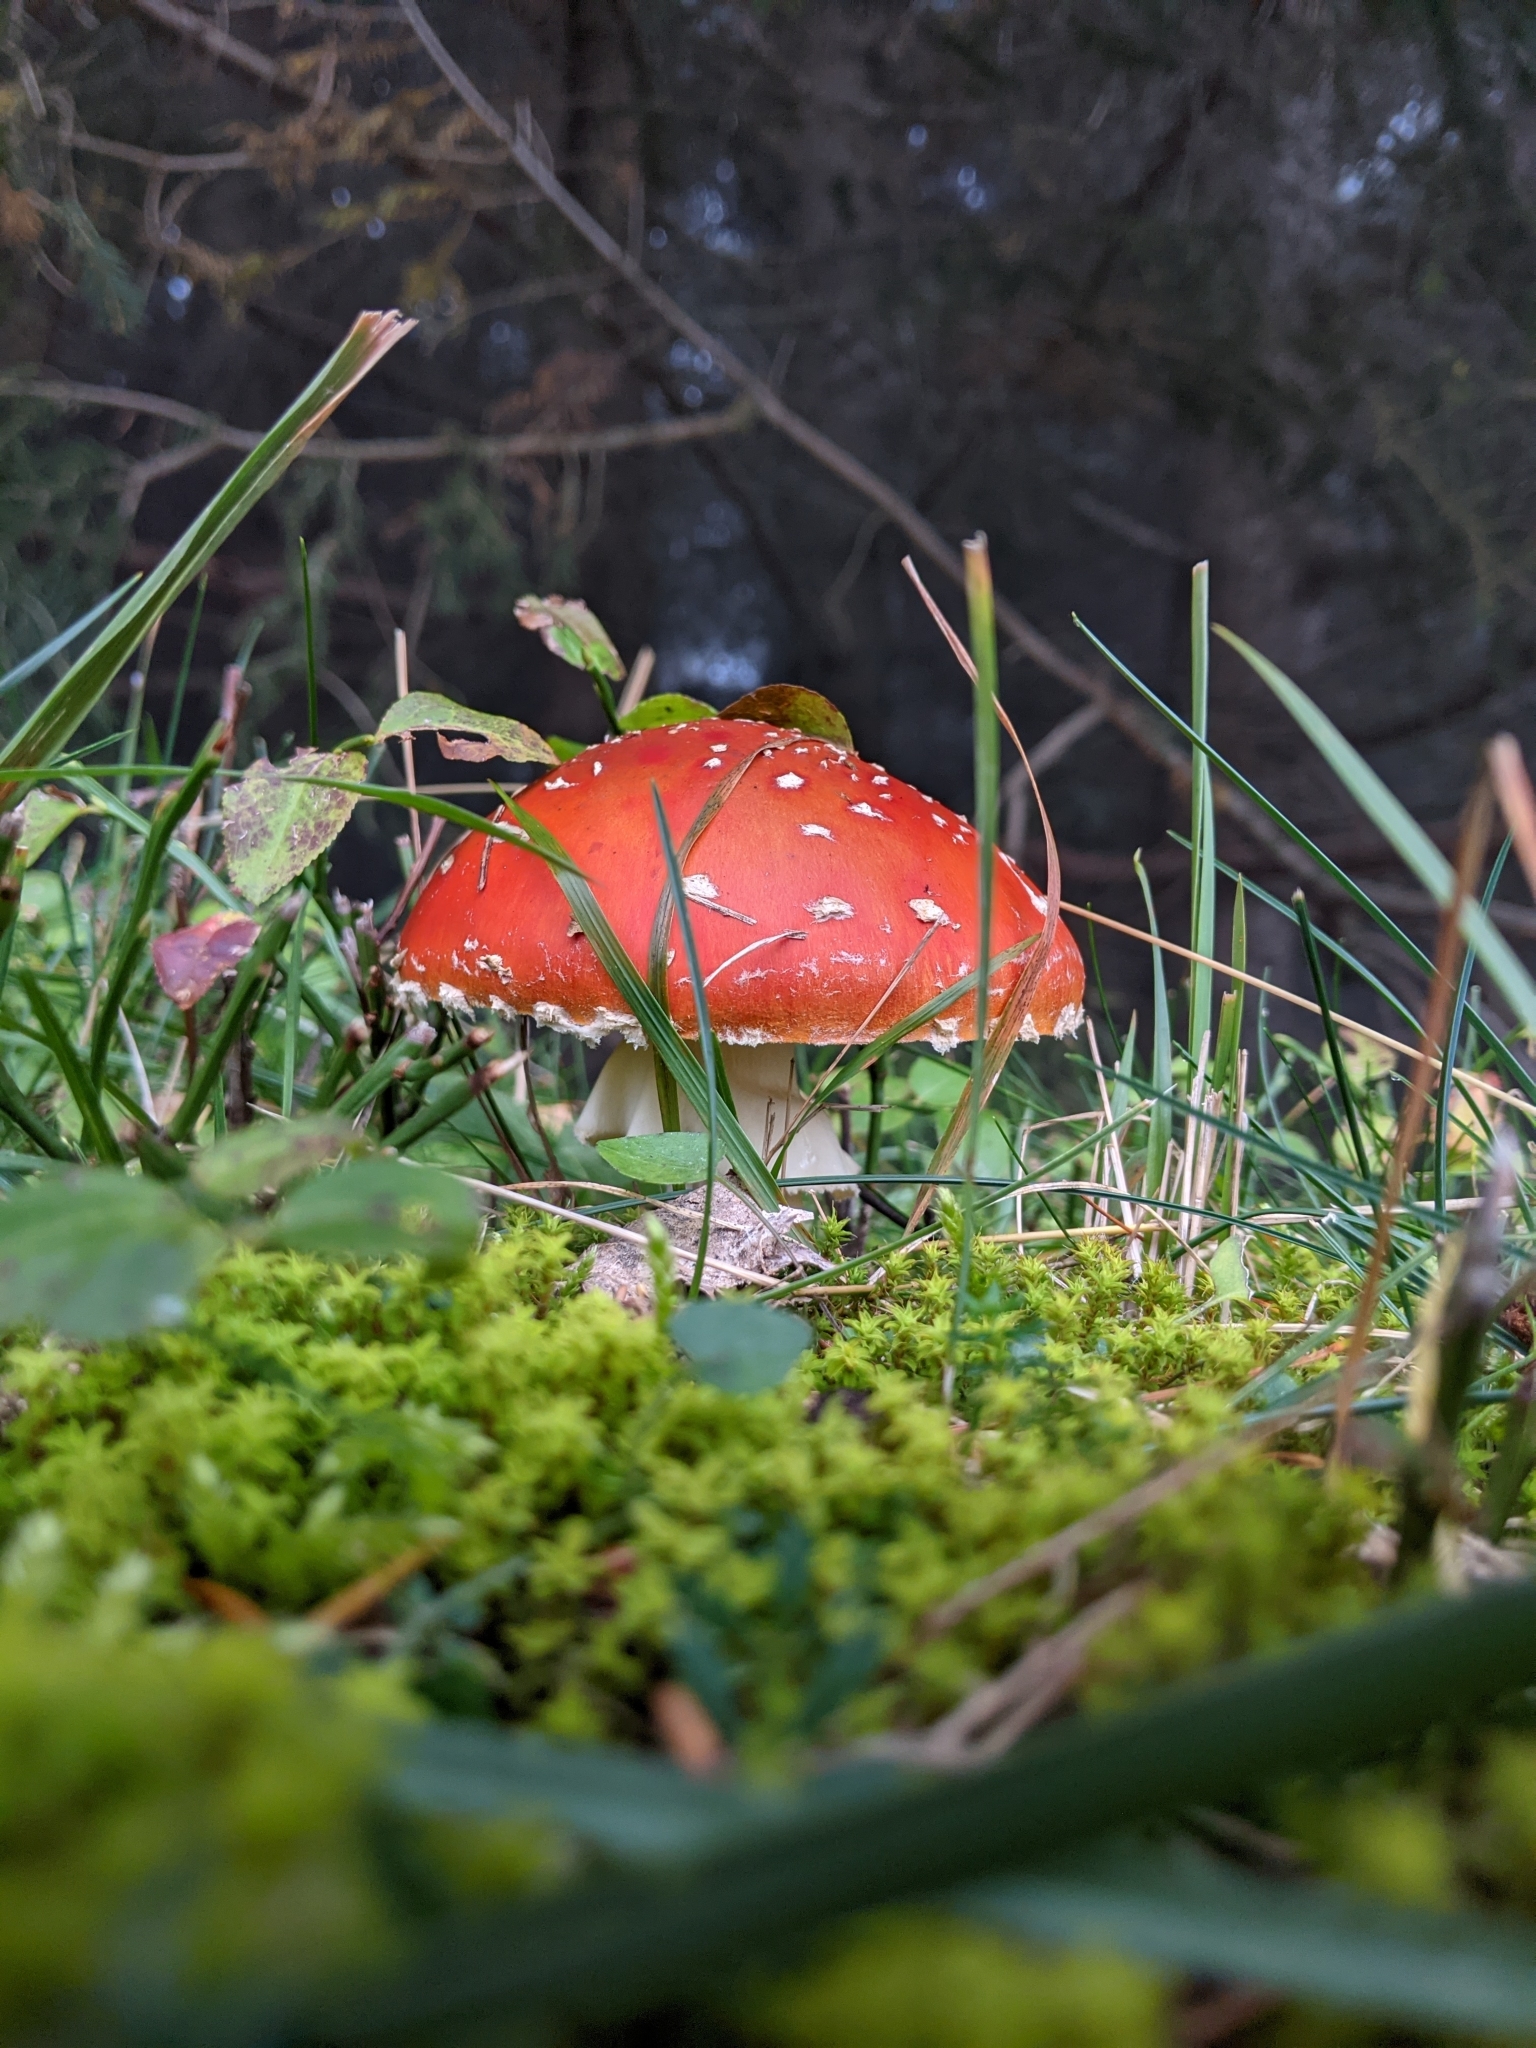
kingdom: Fungi
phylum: Basidiomycota
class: Agaricomycetes
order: Agaricales
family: Amanitaceae
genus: Amanita
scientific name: Amanita muscaria
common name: Fly agaric
